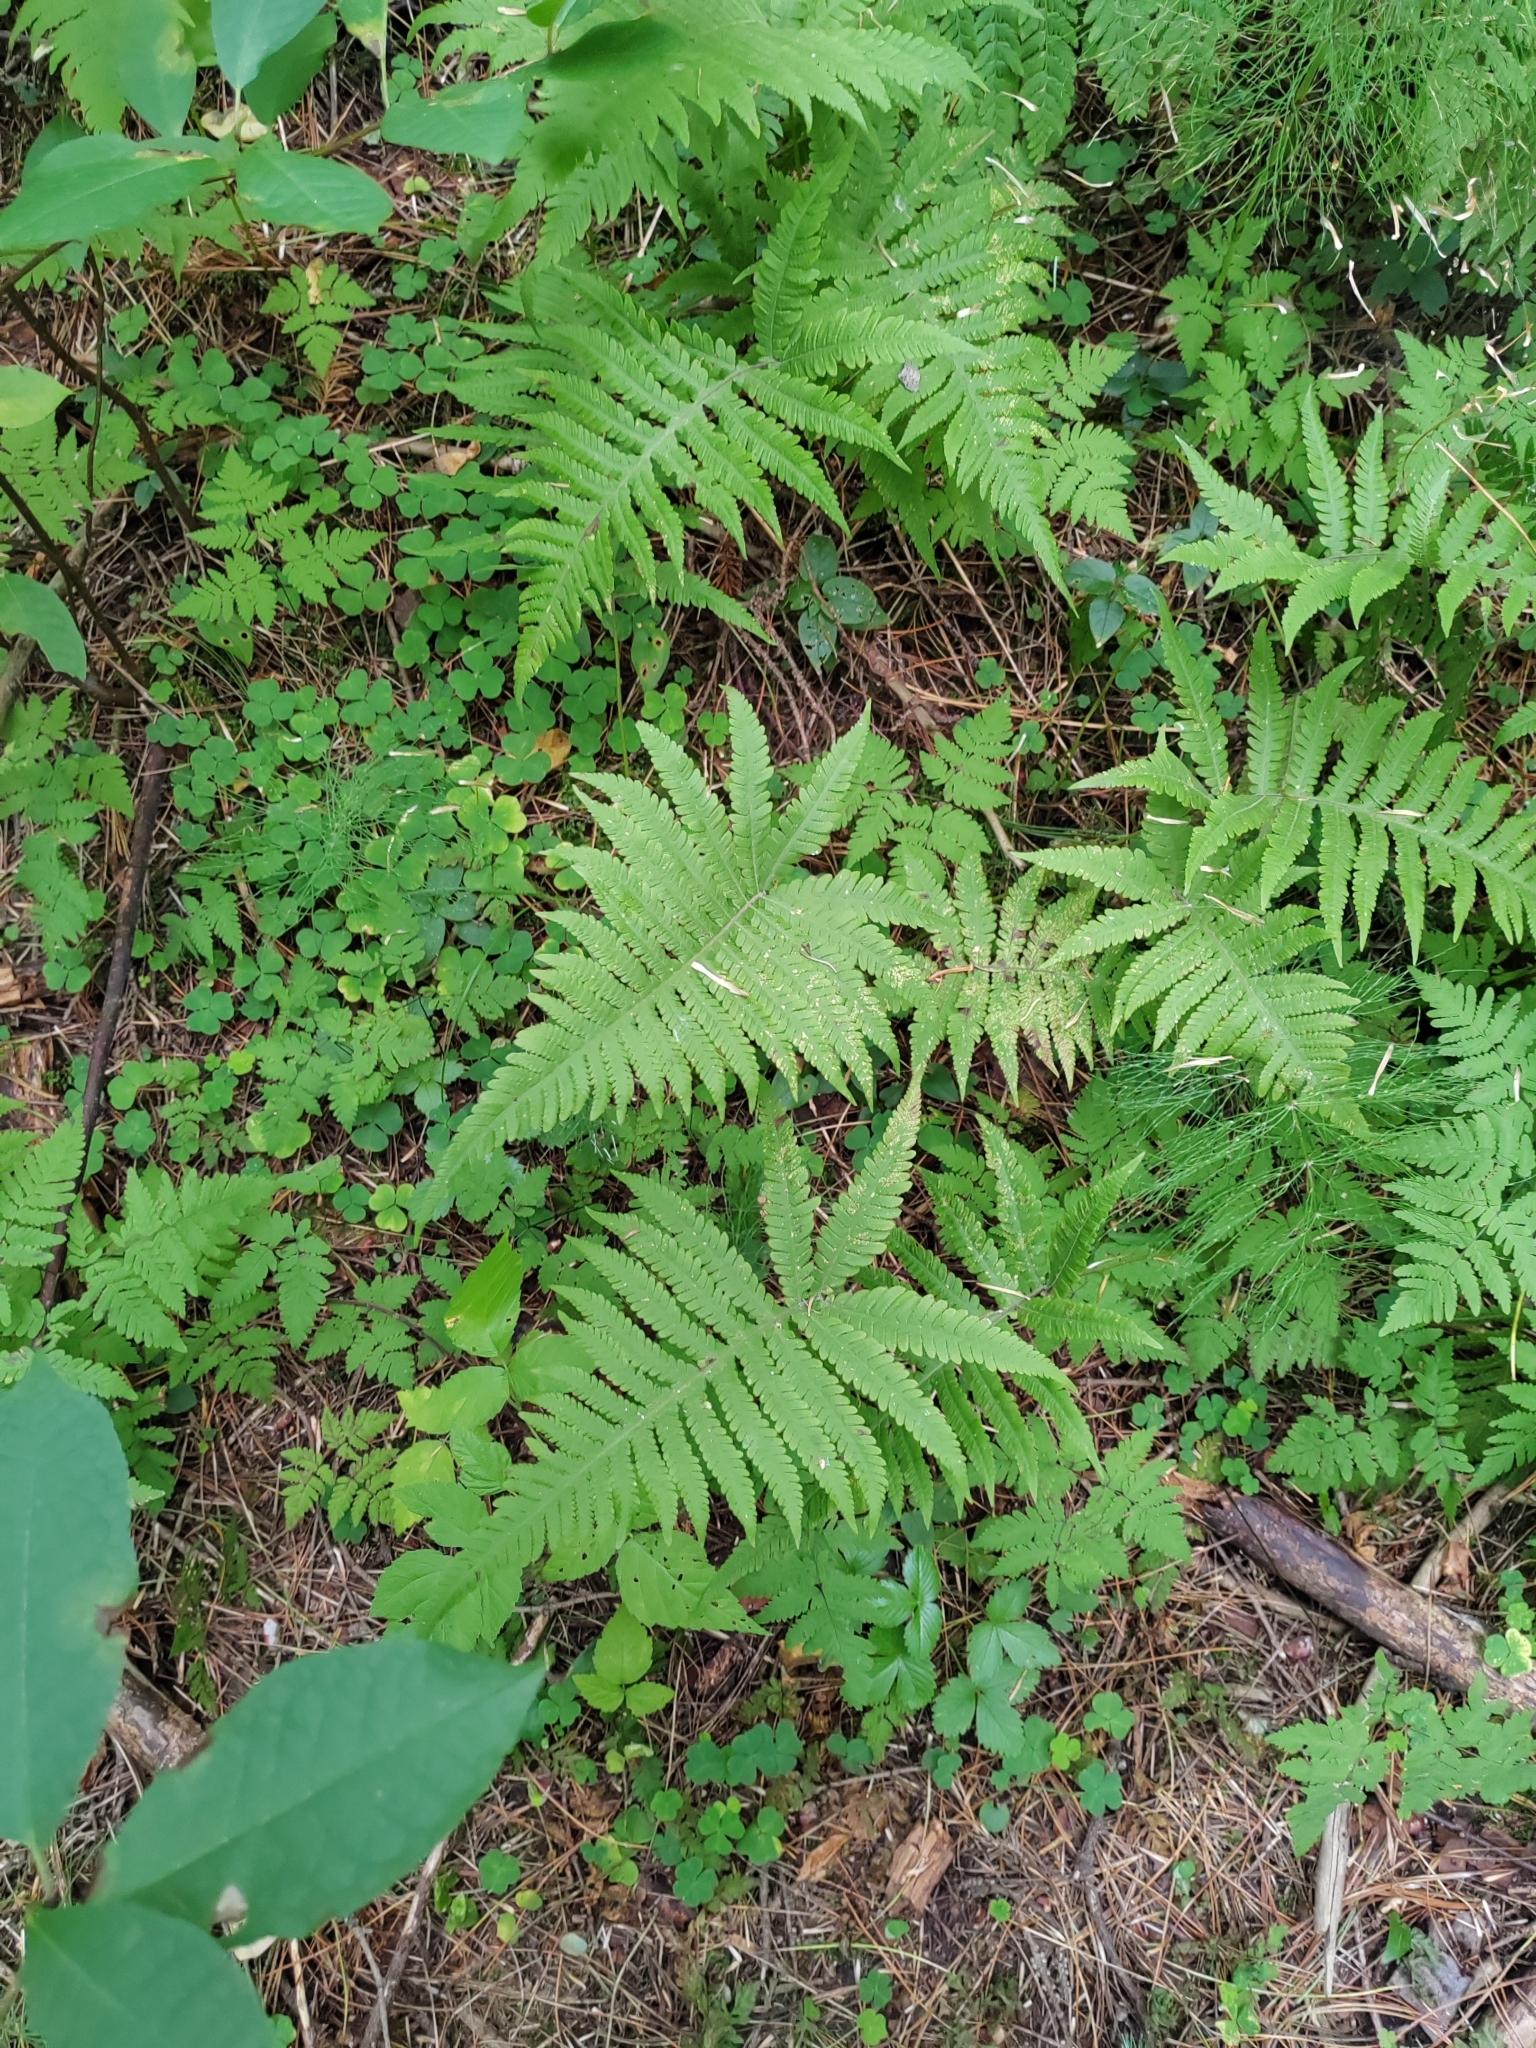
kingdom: Plantae
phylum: Tracheophyta
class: Polypodiopsida
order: Polypodiales
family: Thelypteridaceae
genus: Phegopteris
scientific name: Phegopteris connectilis
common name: Beech fern
